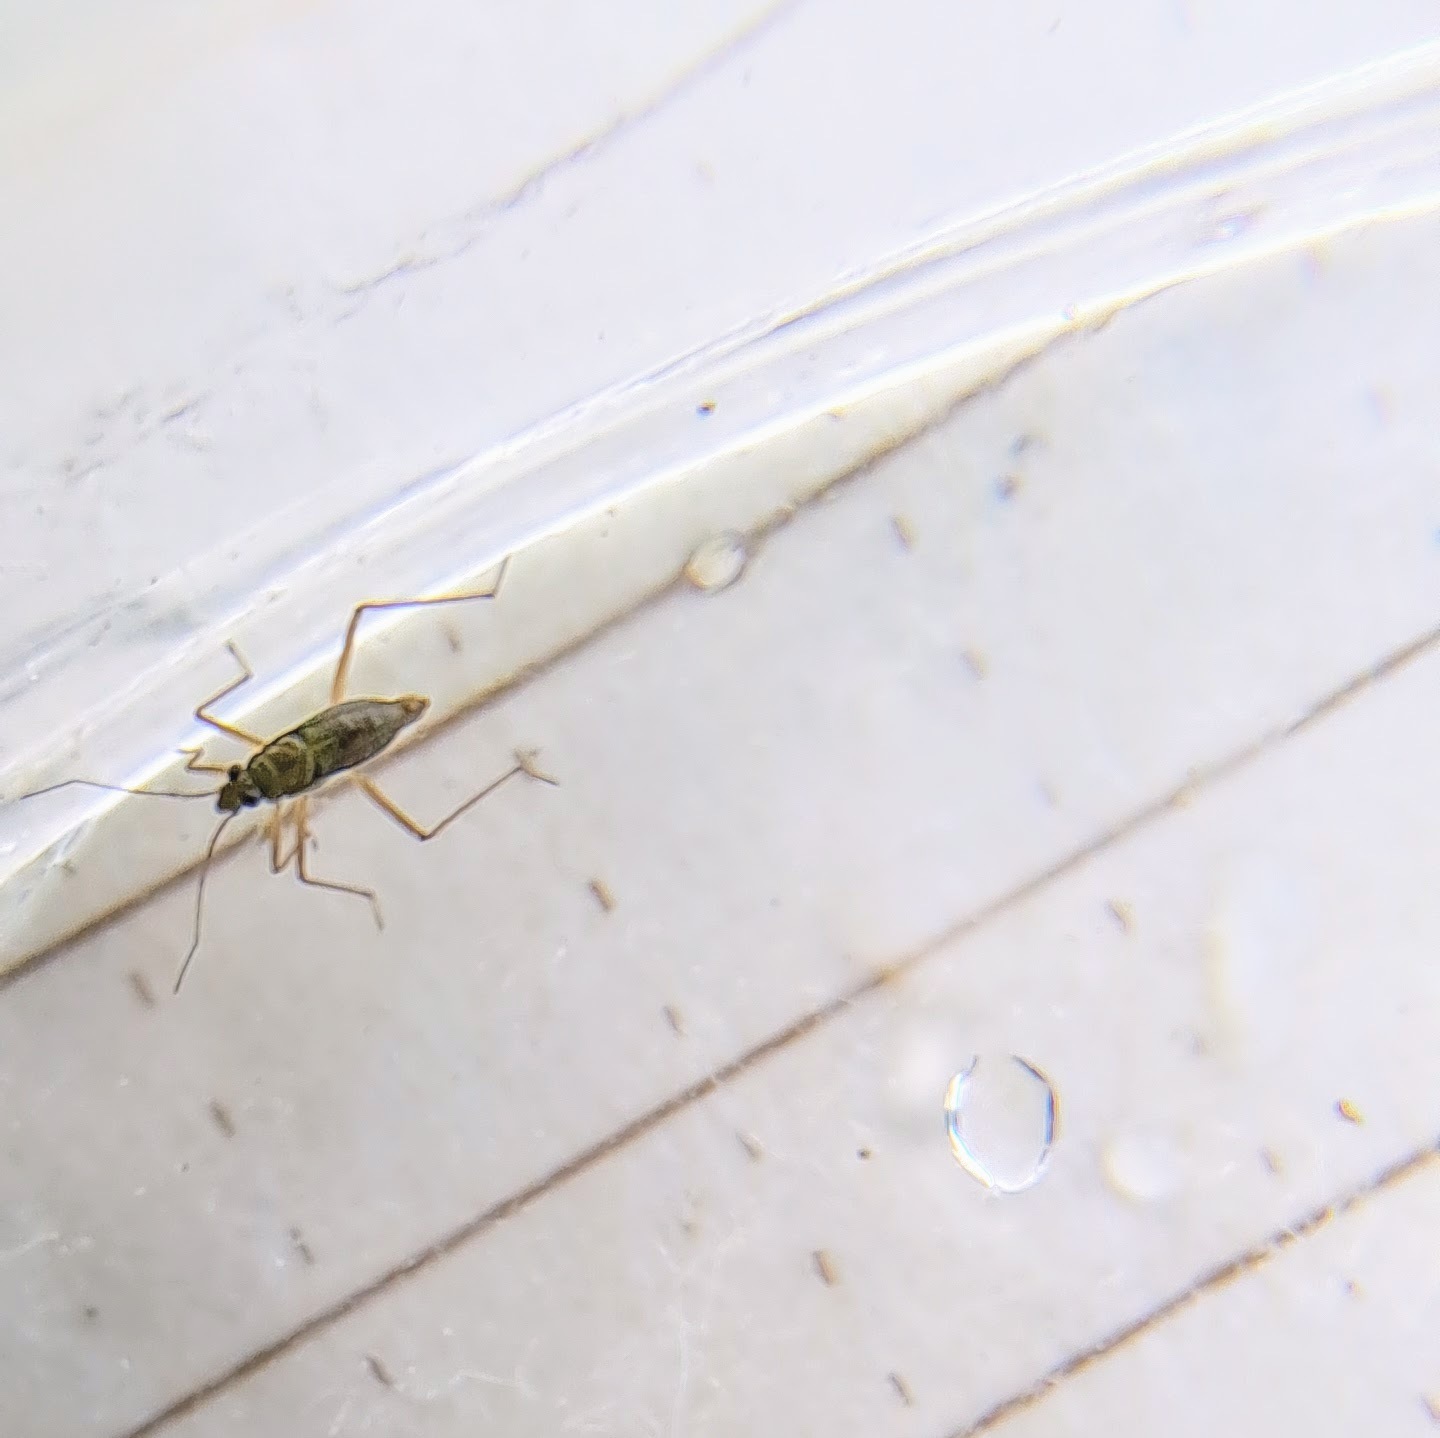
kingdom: Animalia
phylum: Arthropoda
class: Insecta
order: Hemiptera
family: Mesoveliidae
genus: Mesovelia
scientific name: Mesovelia mulsanti
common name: Water treaders
